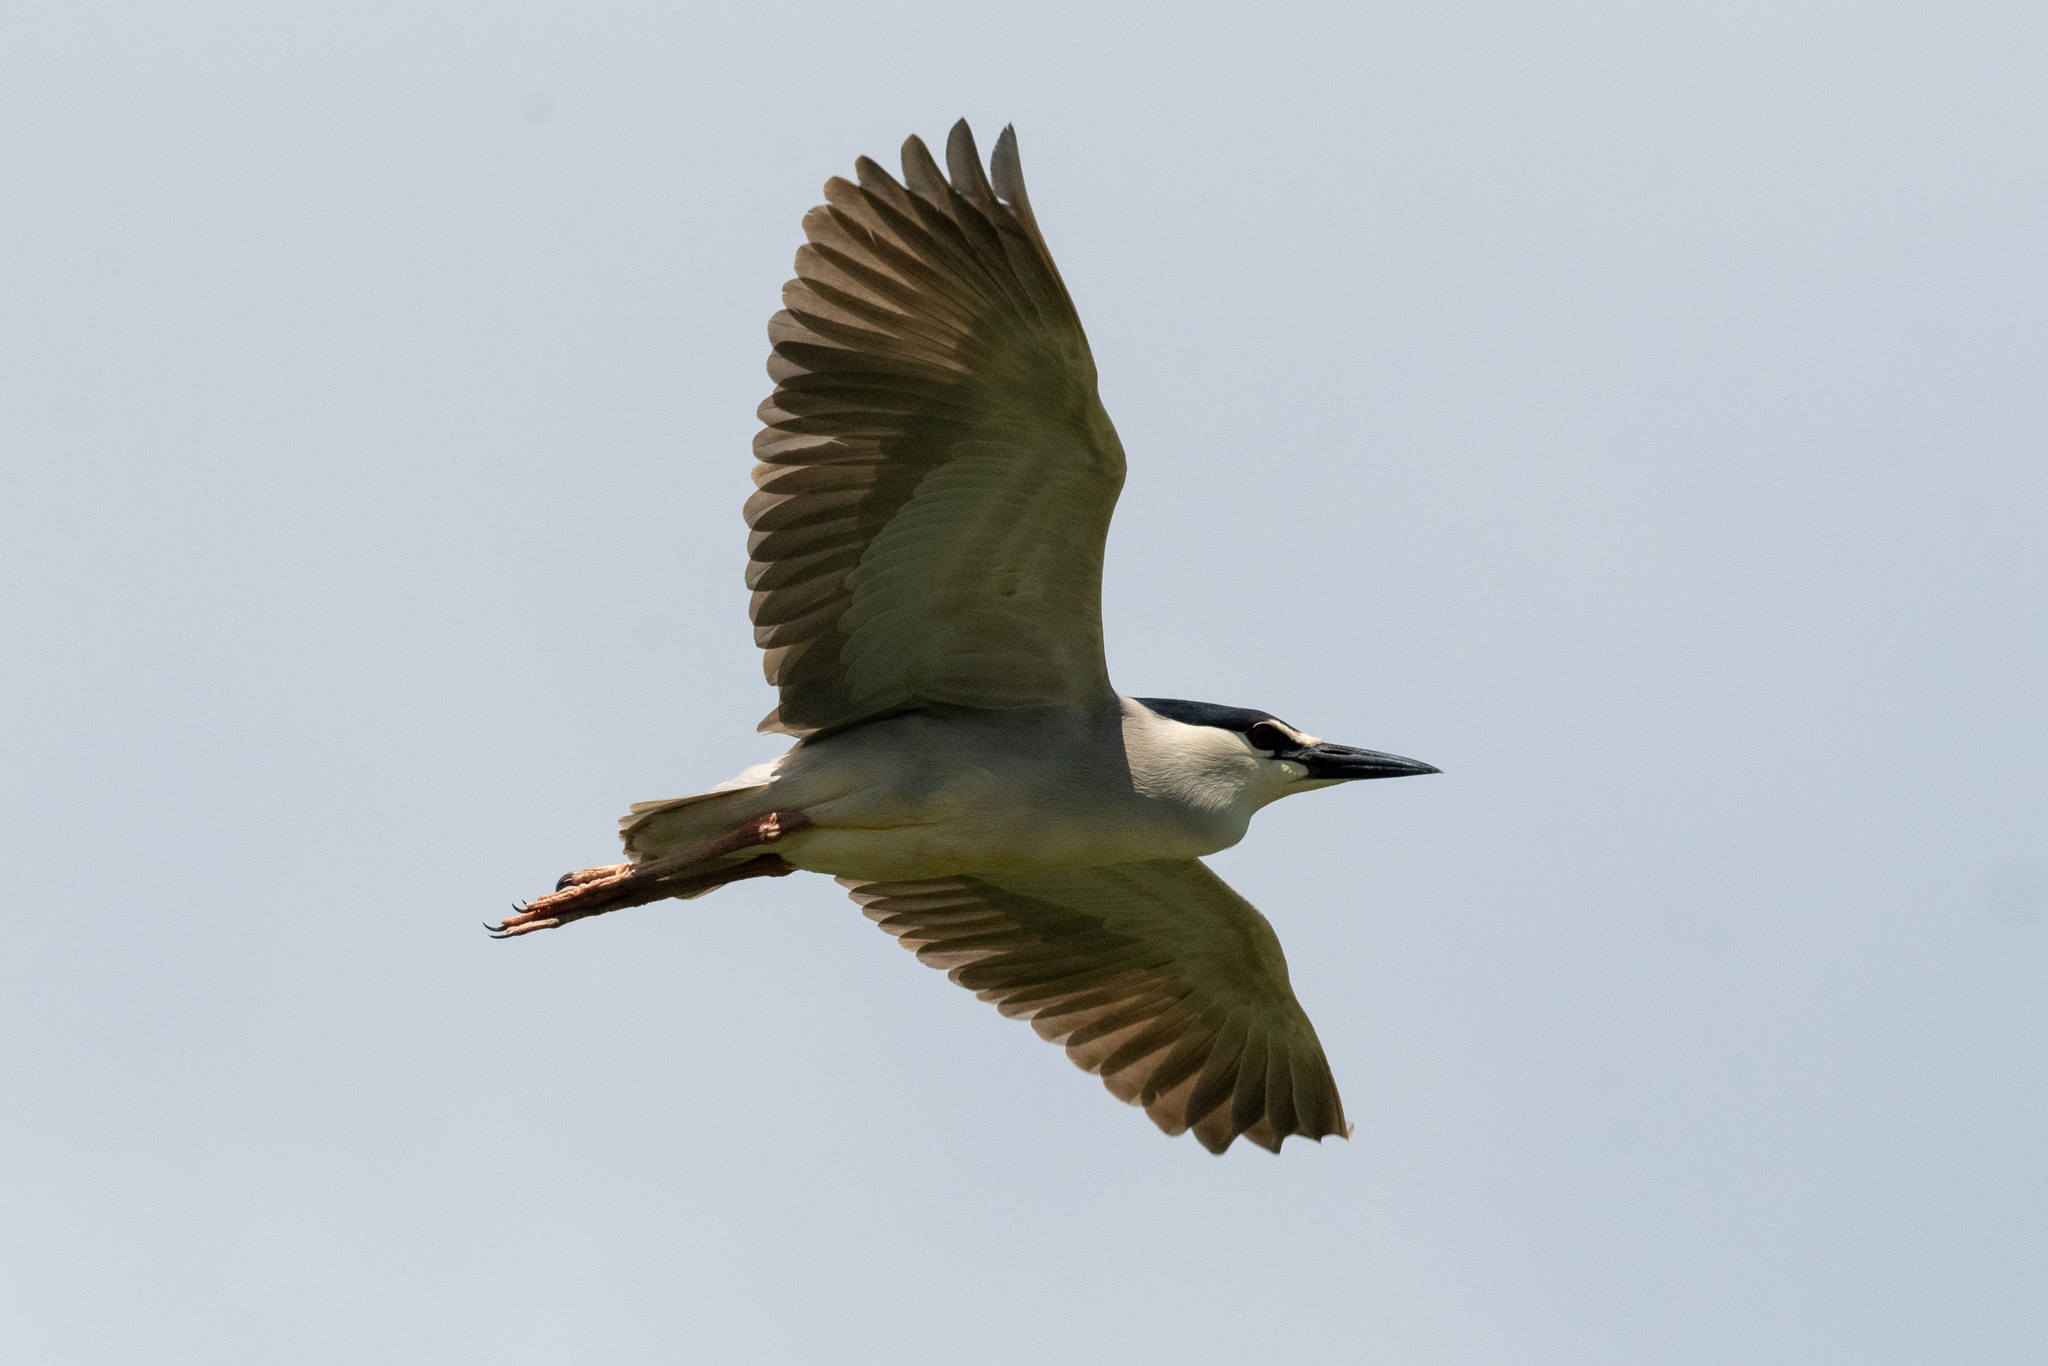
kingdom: Animalia
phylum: Chordata
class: Aves
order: Pelecaniformes
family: Ardeidae
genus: Nycticorax
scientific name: Nycticorax nycticorax
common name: Black-crowned night heron
